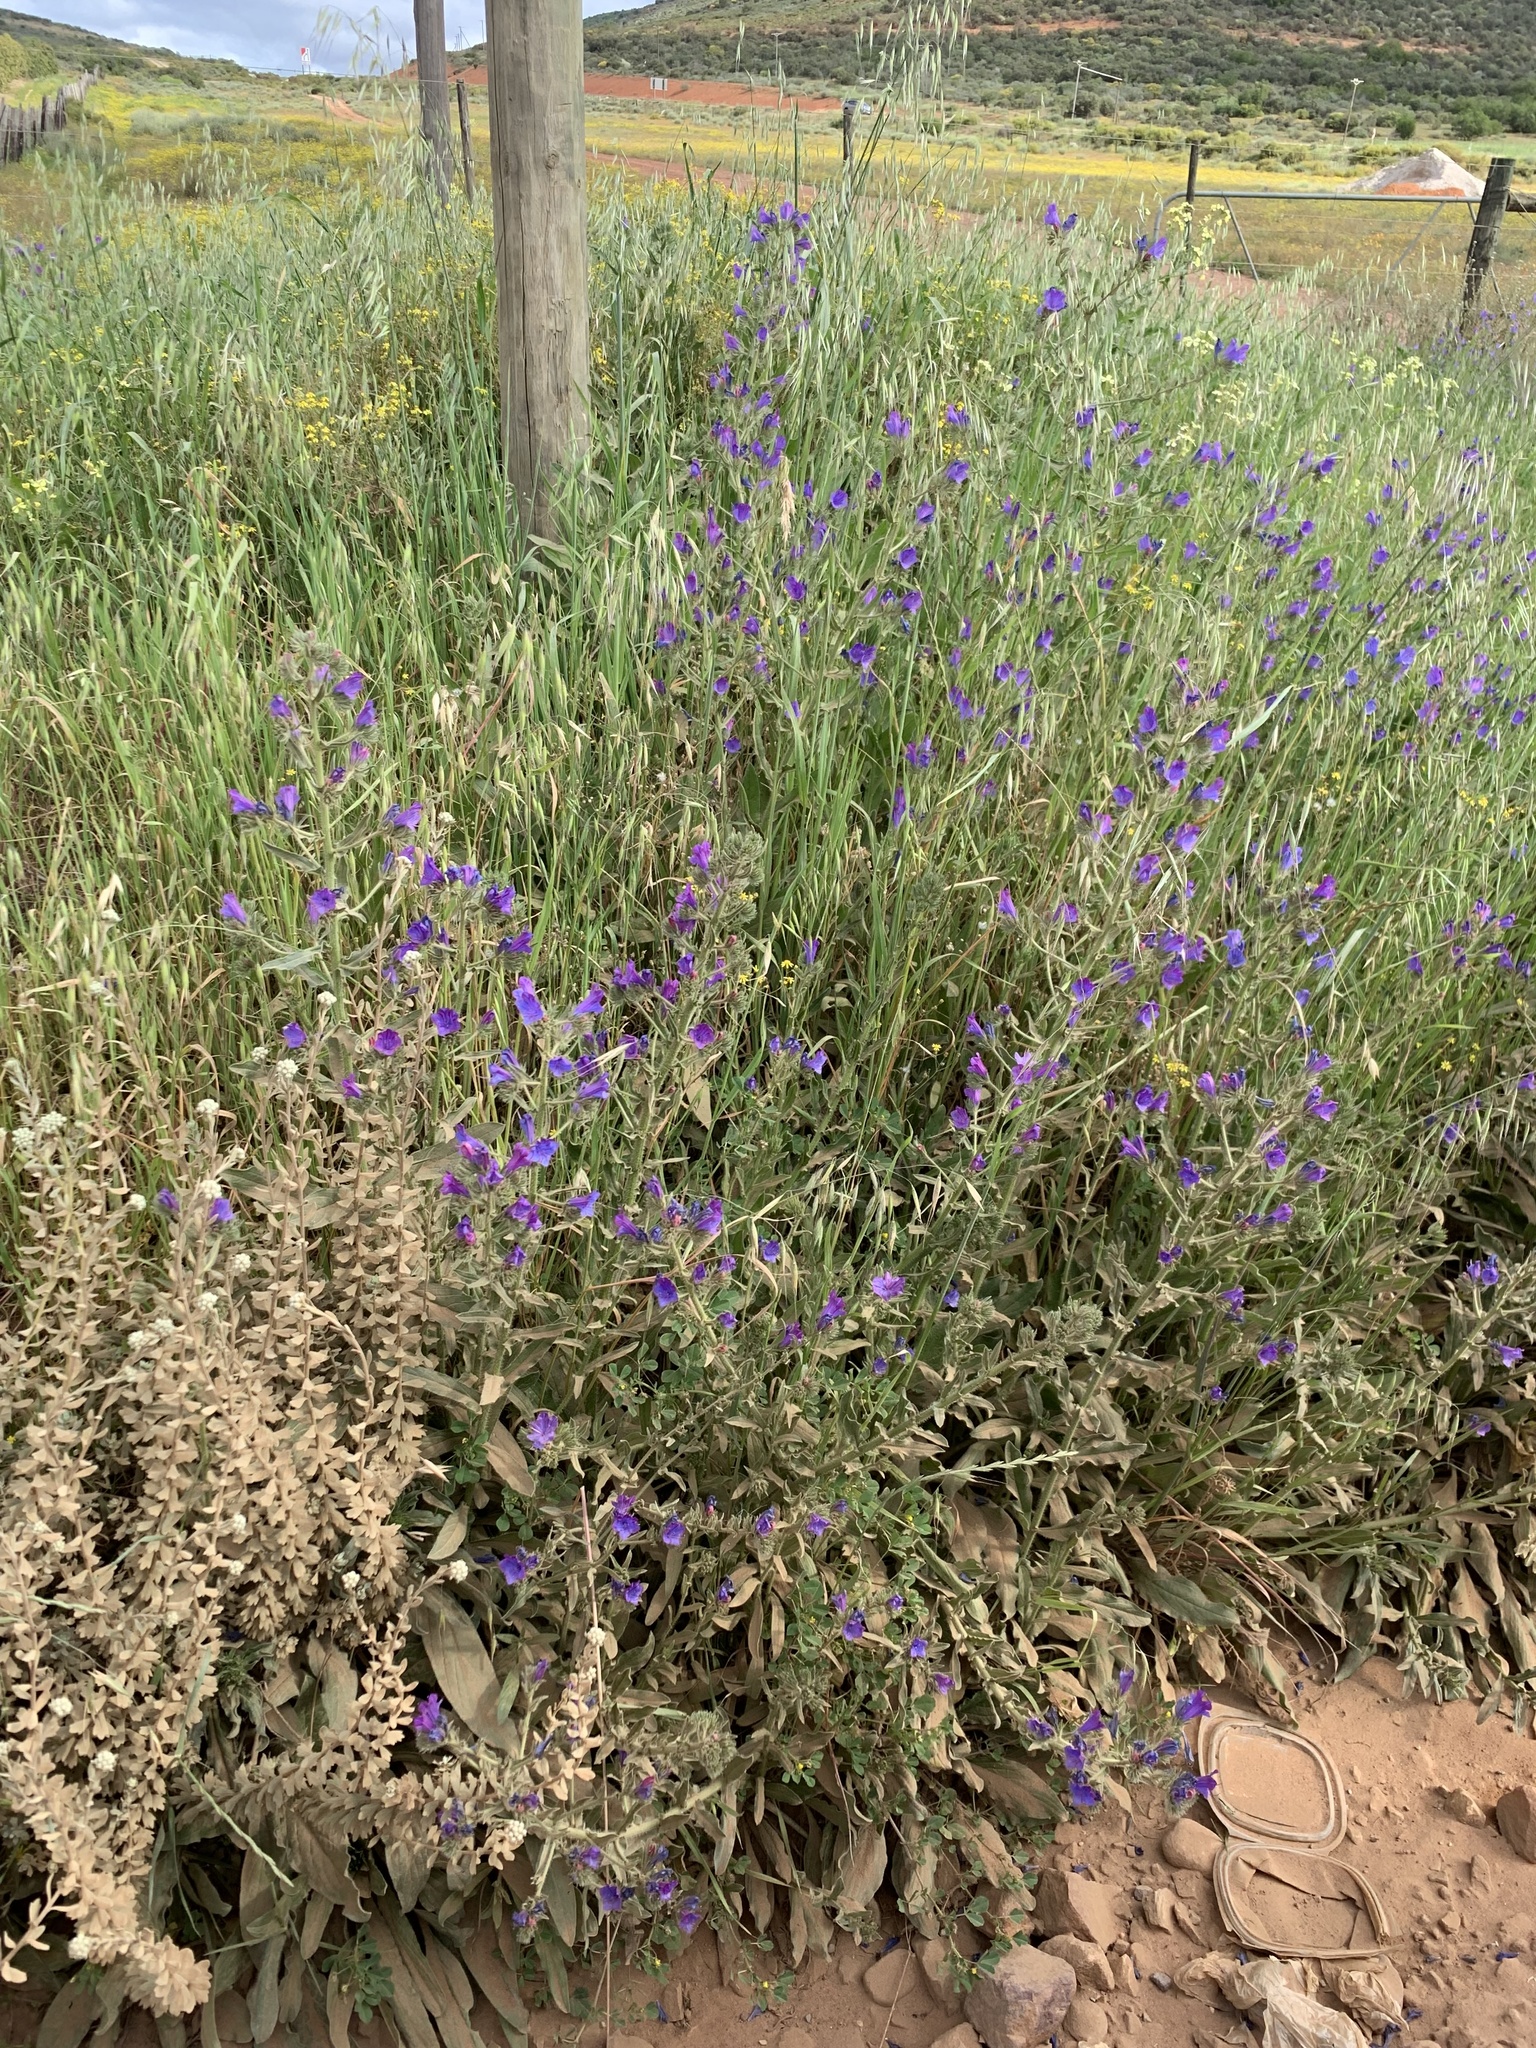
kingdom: Plantae
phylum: Tracheophyta
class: Magnoliopsida
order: Boraginales
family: Boraginaceae
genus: Echium
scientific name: Echium plantagineum
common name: Purple viper's-bugloss
